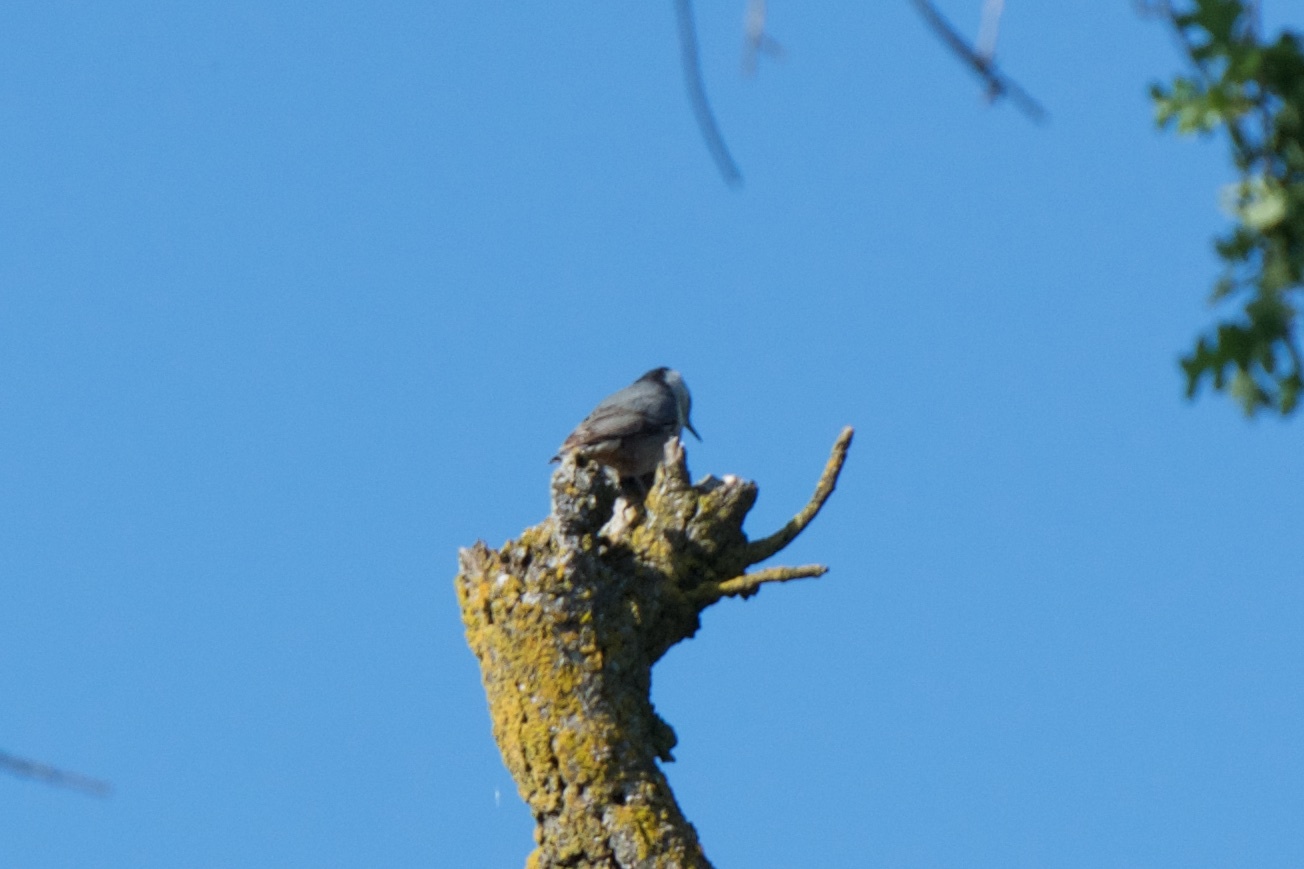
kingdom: Animalia
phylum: Chordata
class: Aves
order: Passeriformes
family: Sittidae
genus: Sitta
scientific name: Sitta carolinensis
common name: White-breasted nuthatch
